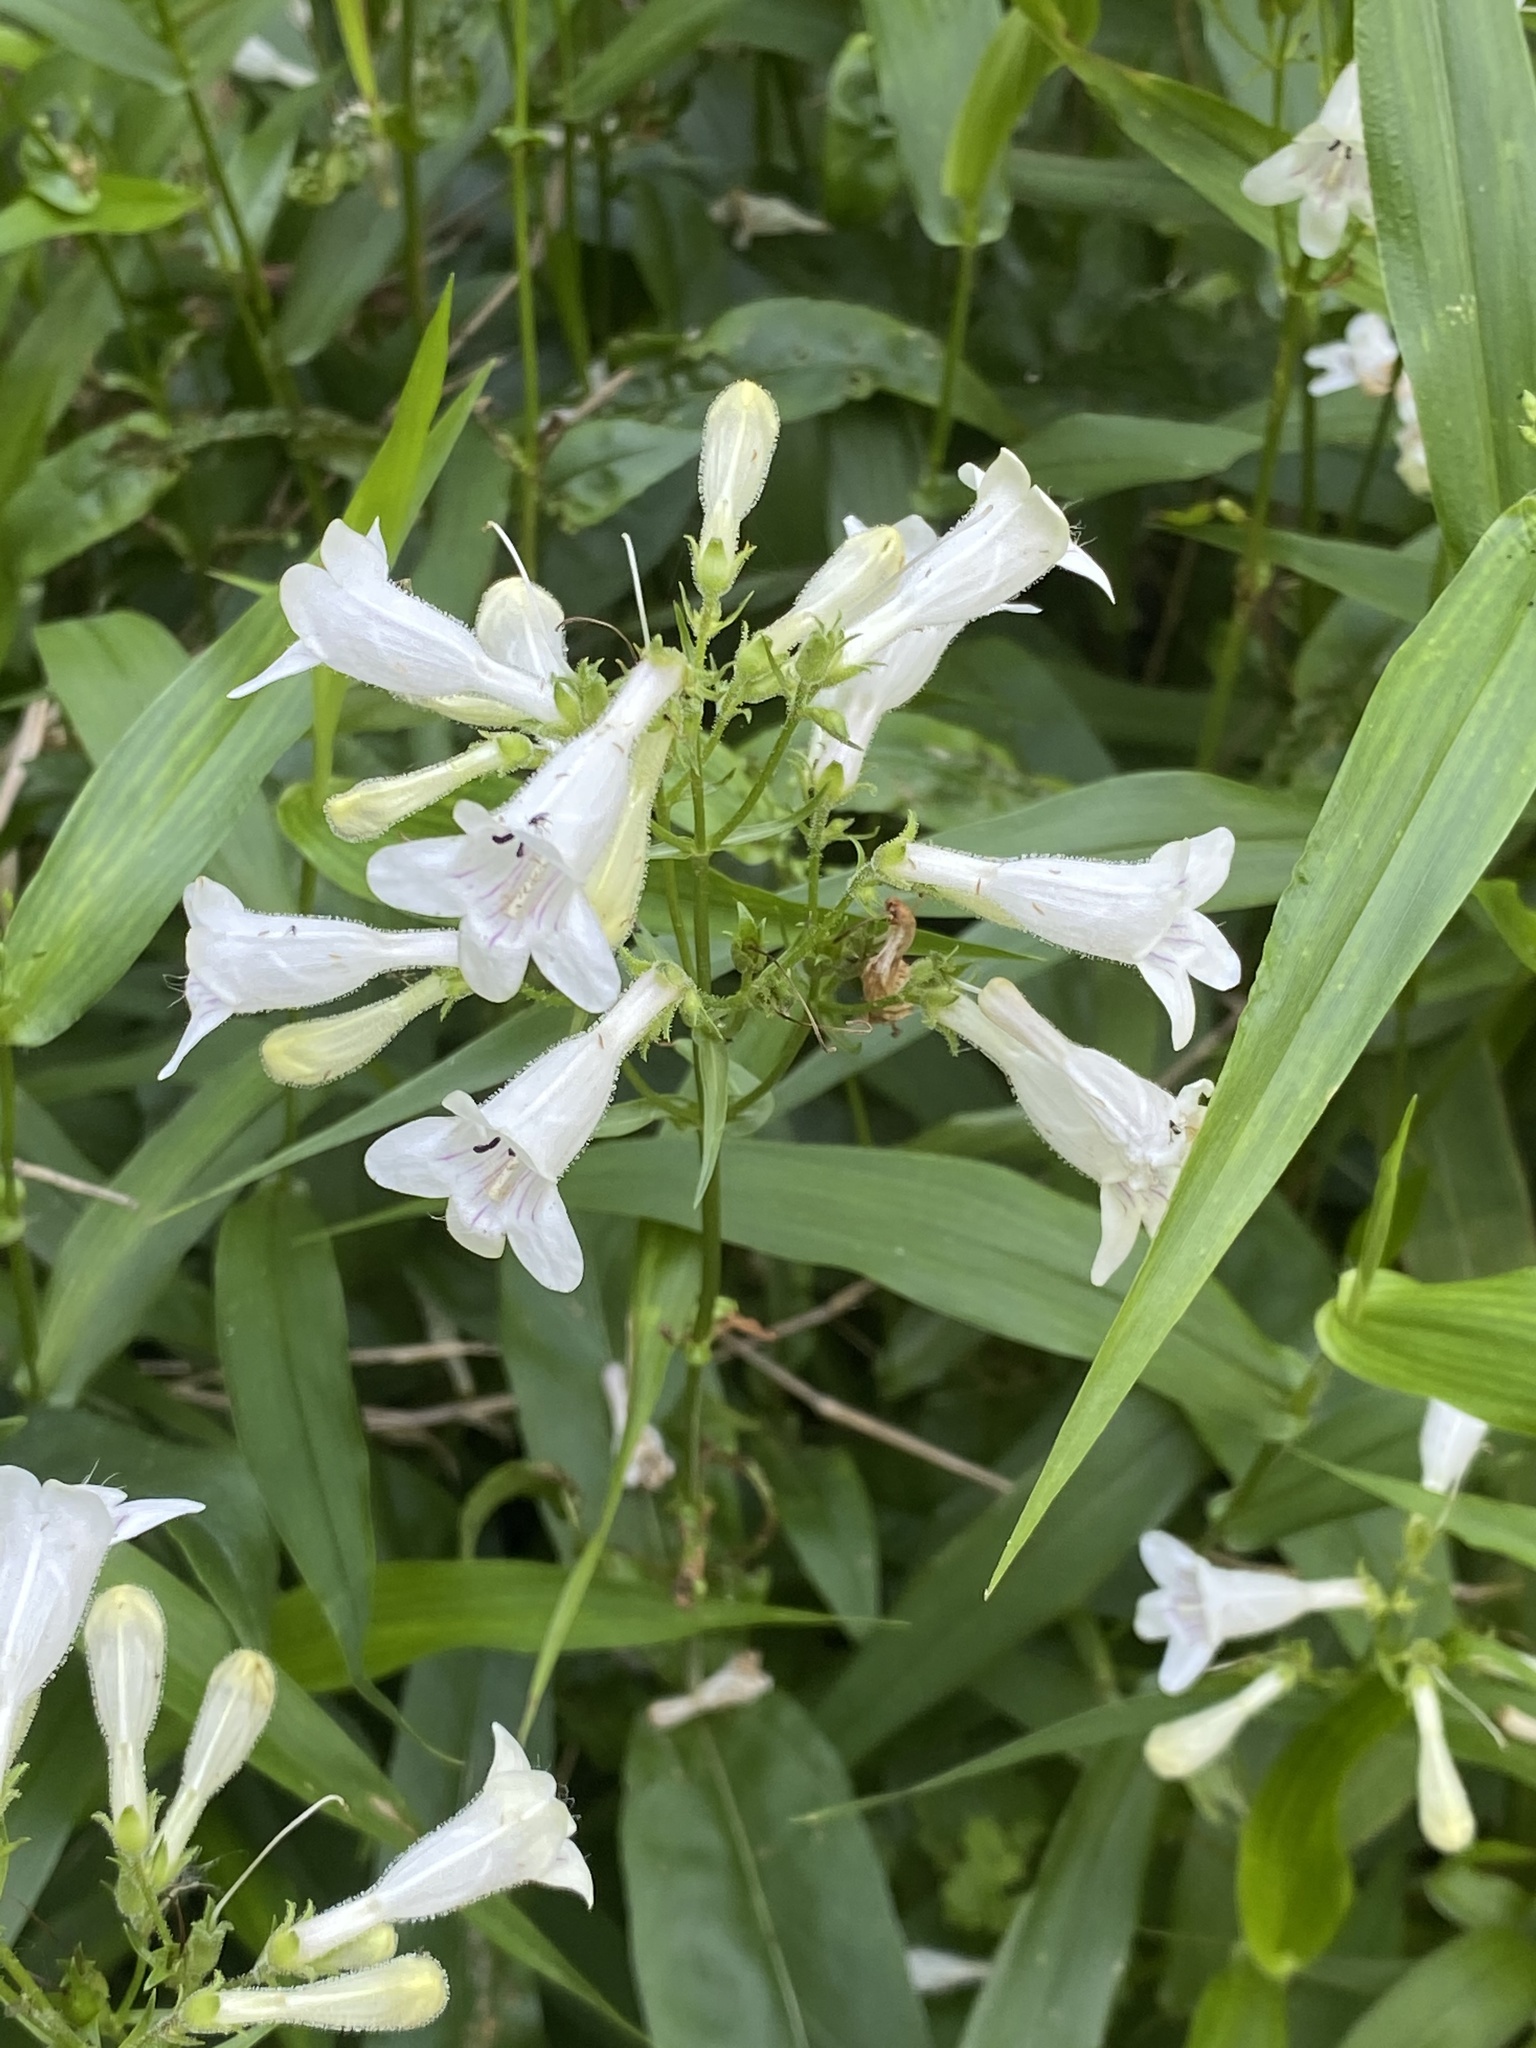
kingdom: Plantae
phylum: Tracheophyta
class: Magnoliopsida
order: Lamiales
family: Plantaginaceae
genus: Penstemon
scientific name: Penstemon digitalis
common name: Foxglove beardtongue
